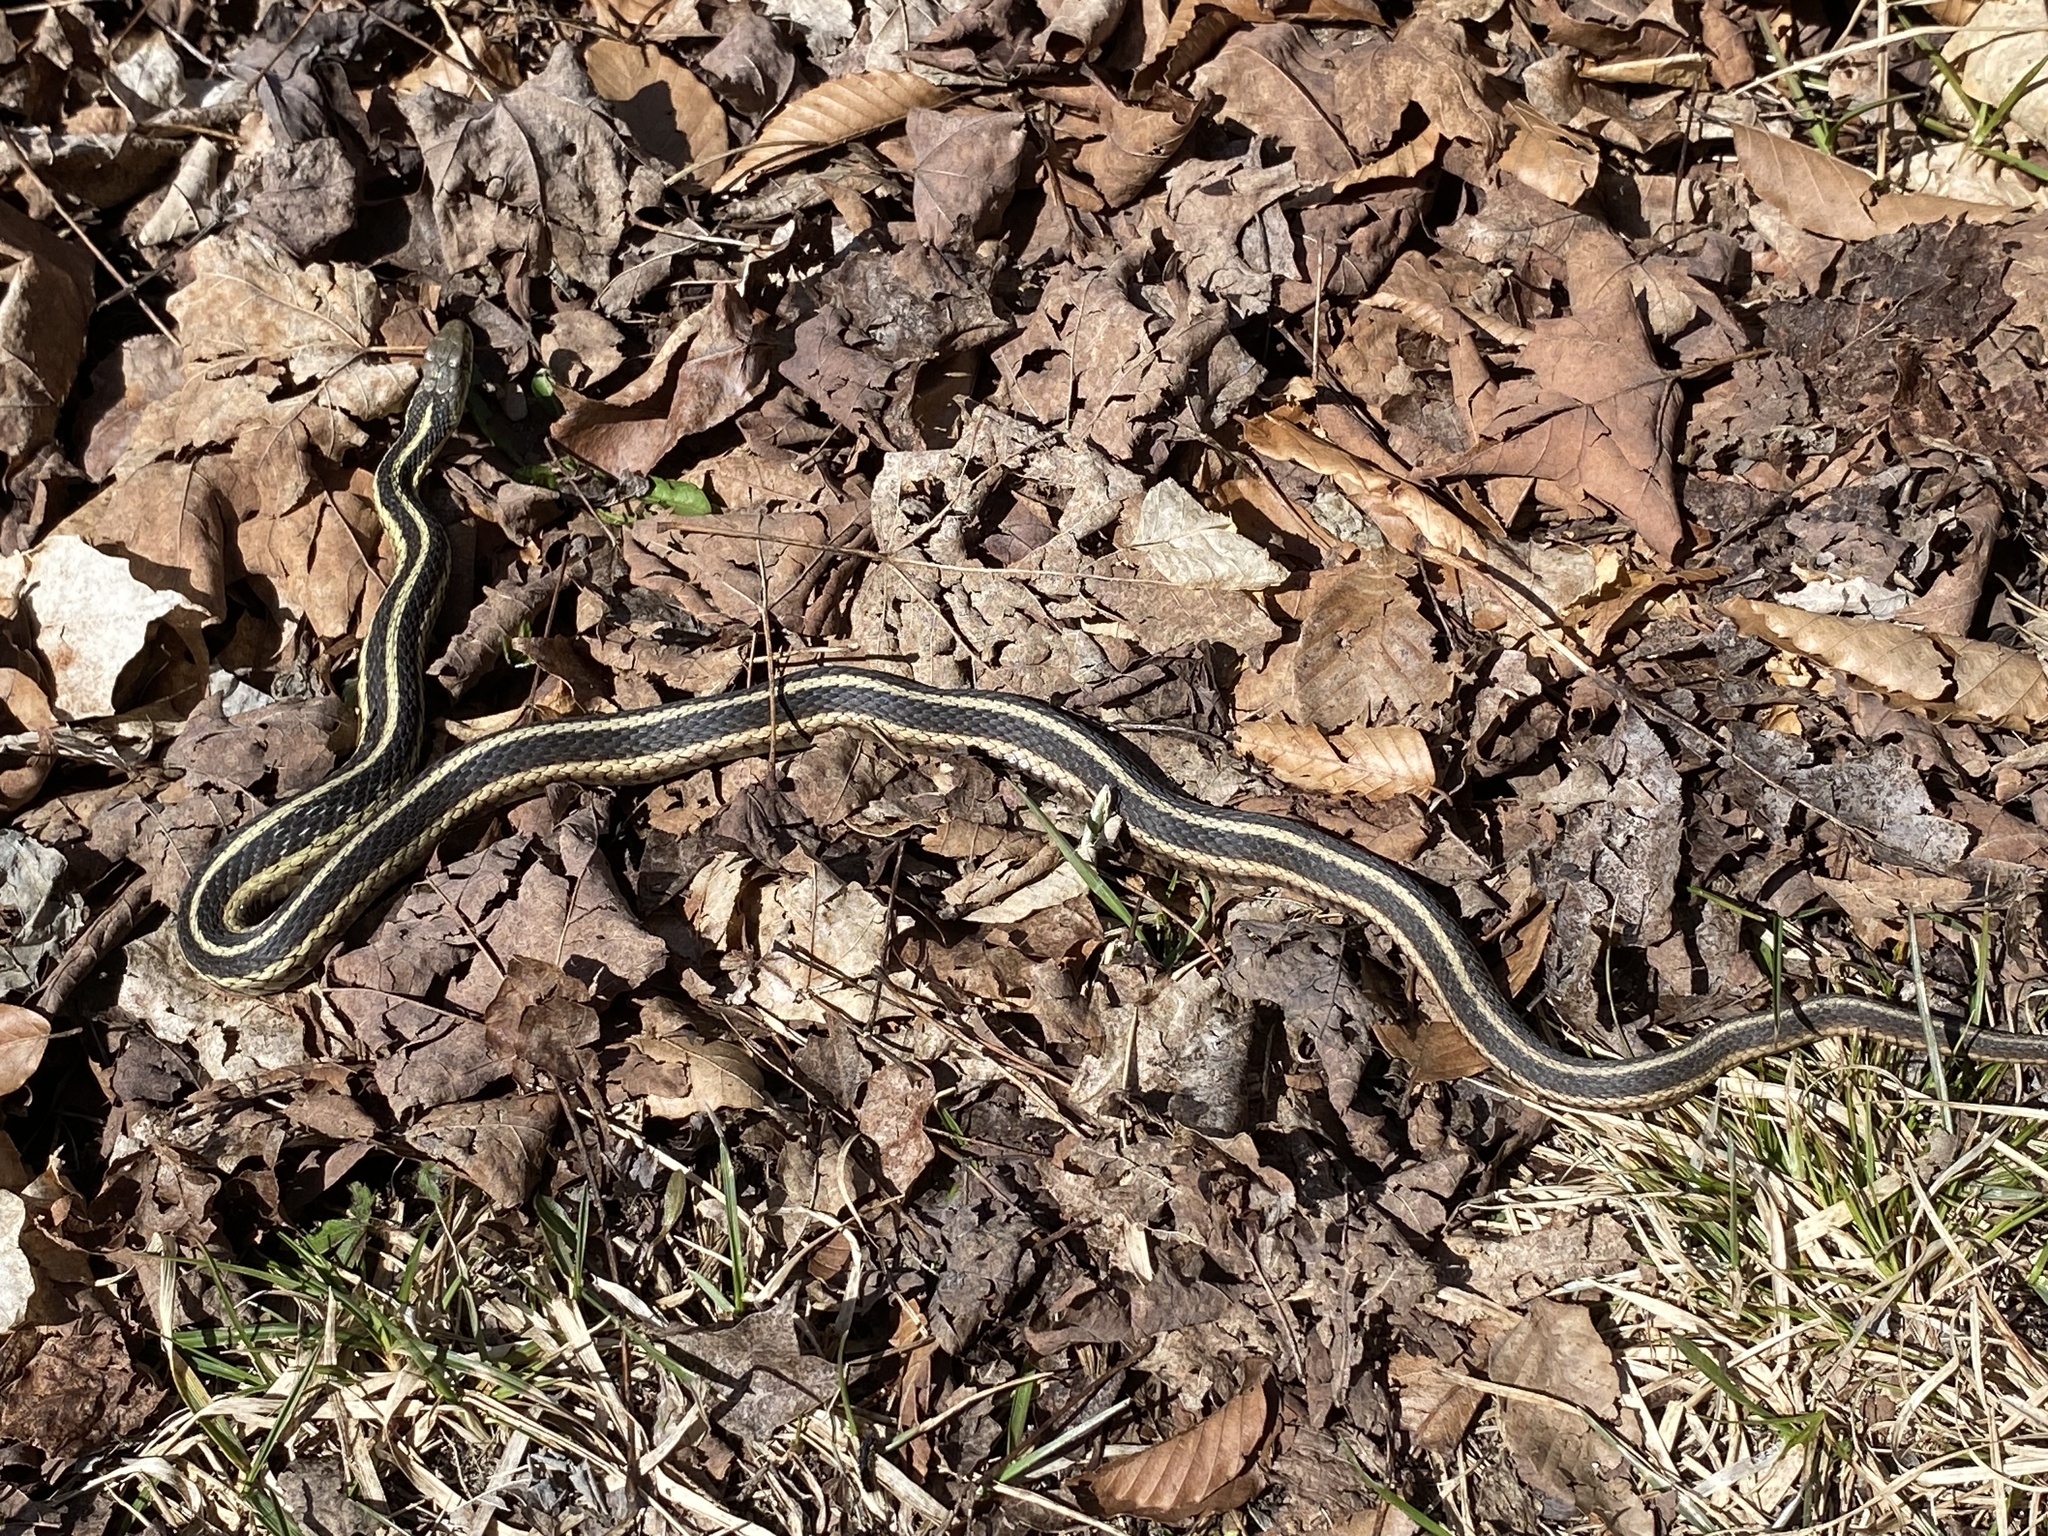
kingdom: Animalia
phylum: Chordata
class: Squamata
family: Colubridae
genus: Thamnophis
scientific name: Thamnophis sirtalis
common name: Common garter snake
